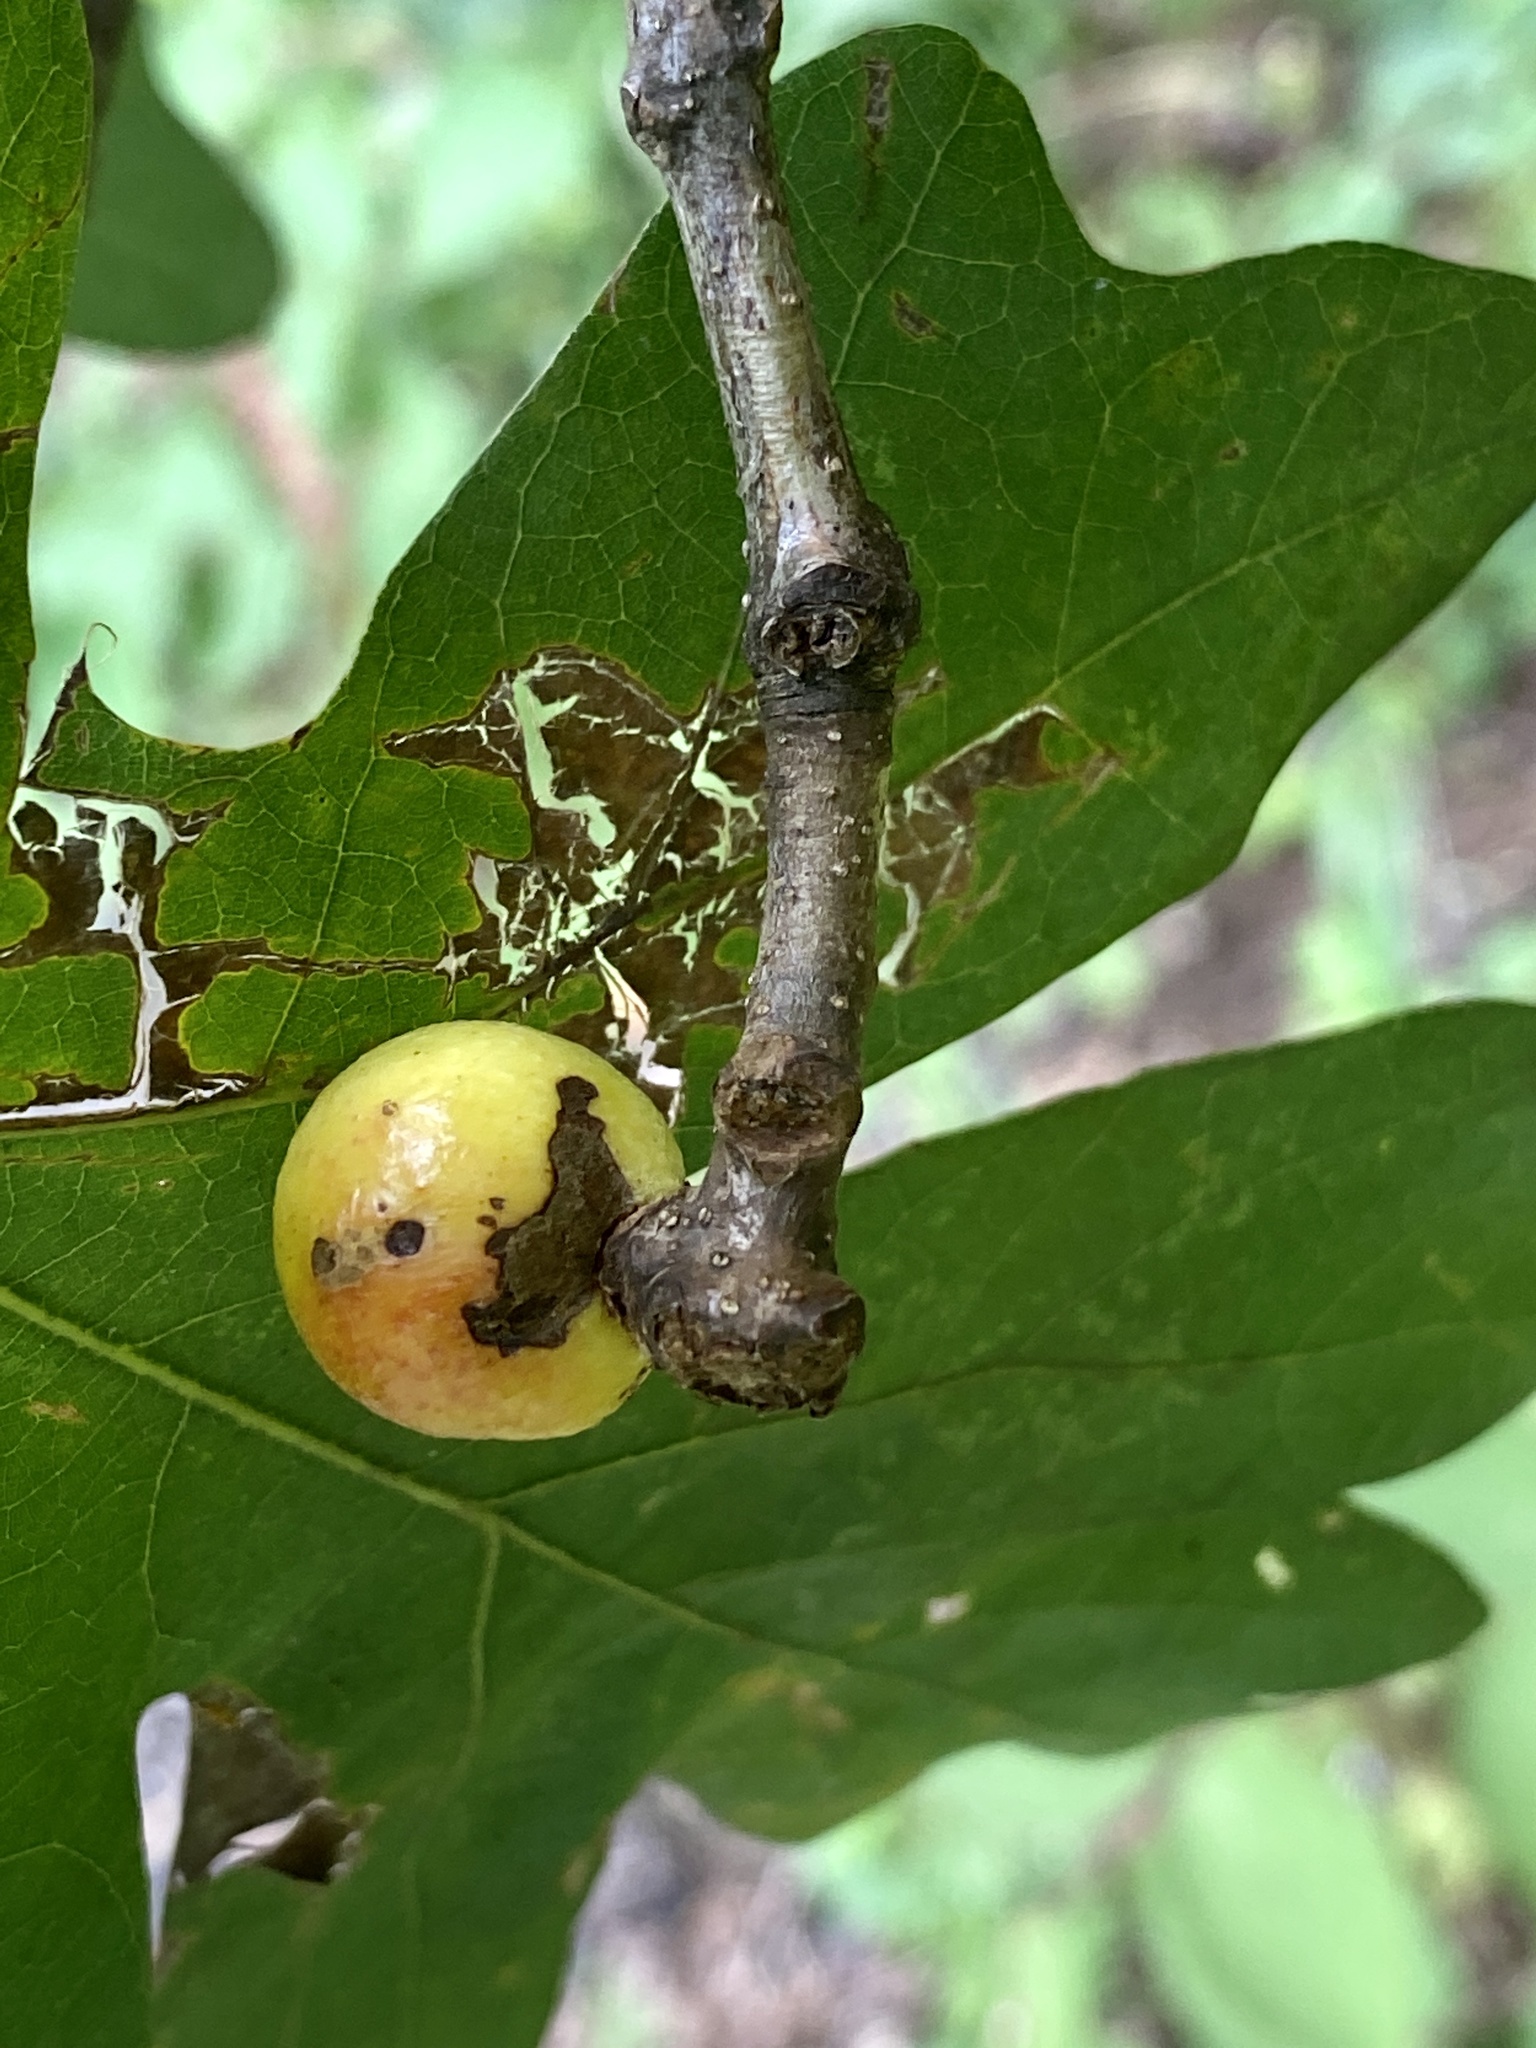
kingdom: Animalia
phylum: Arthropoda
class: Insecta
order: Hymenoptera
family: Cynipidae
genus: Disholcaspis
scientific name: Disholcaspis quercusglobulus
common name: Round bullet gall wasp
